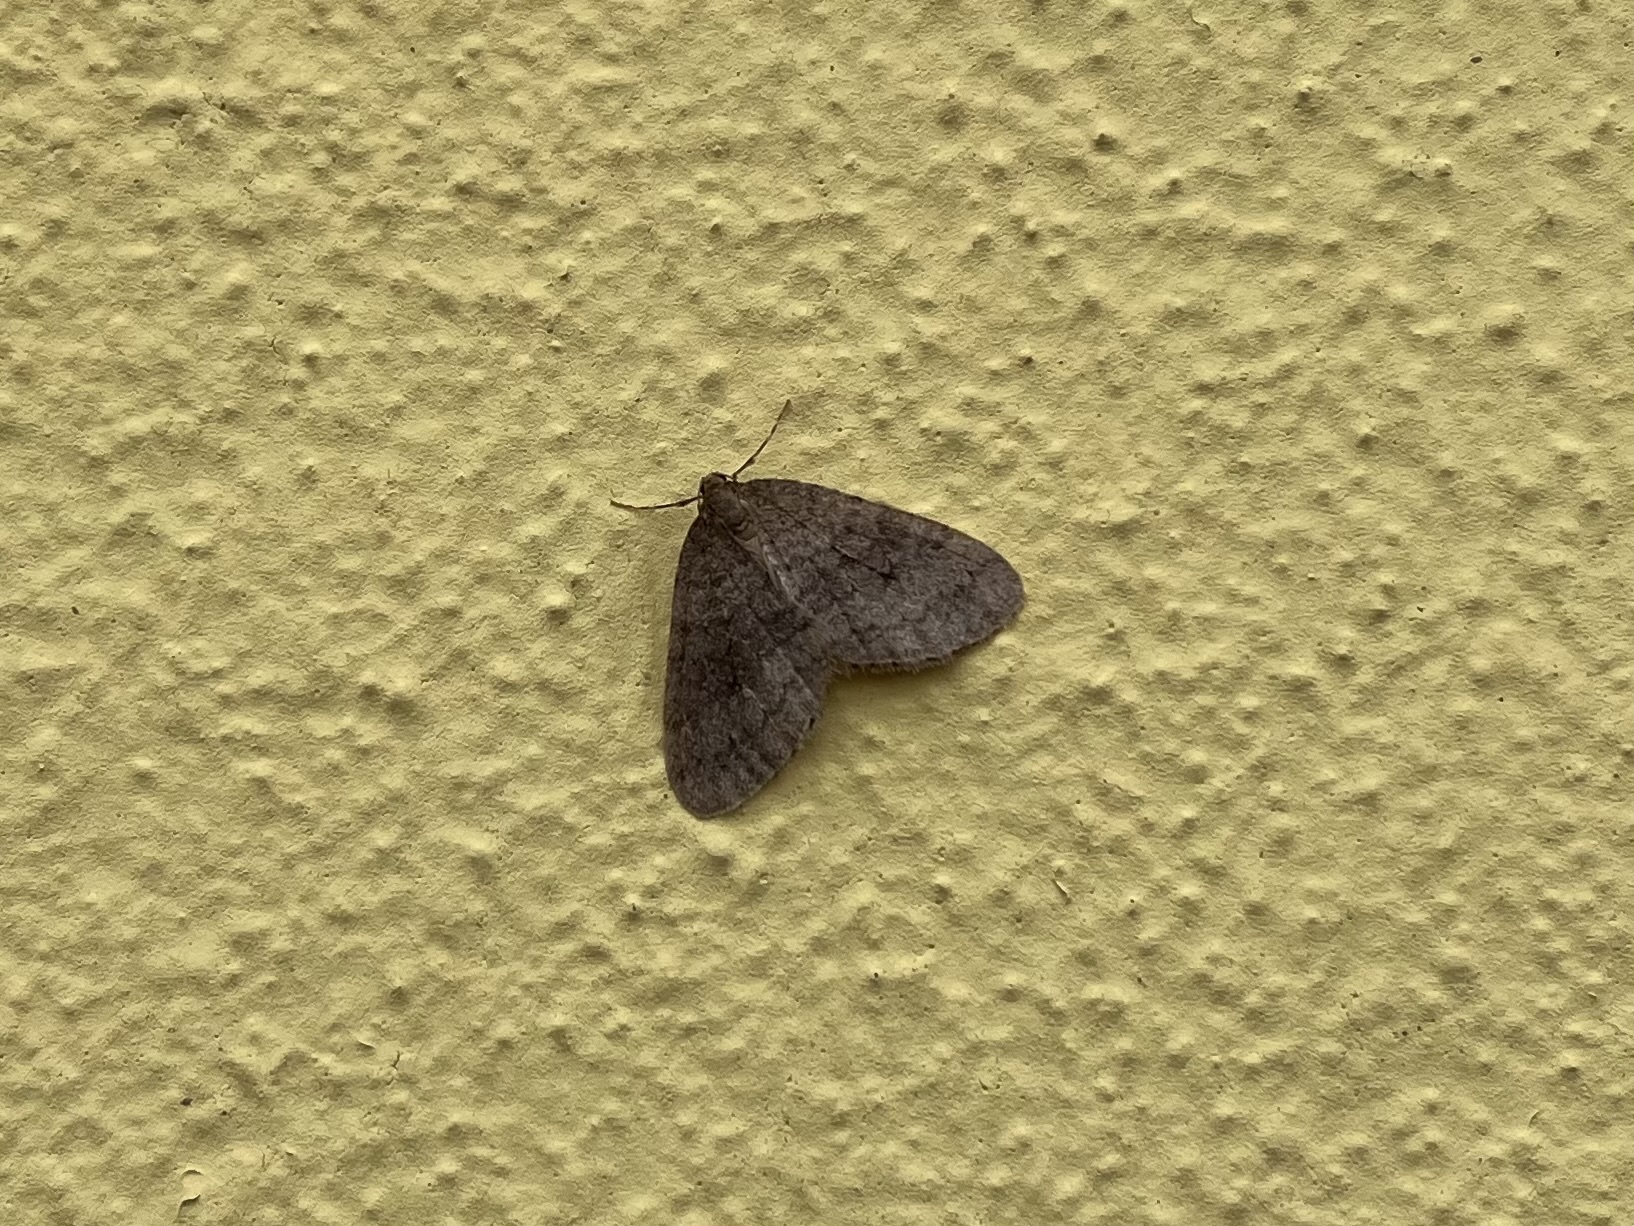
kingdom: Animalia
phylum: Arthropoda
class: Insecta
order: Lepidoptera
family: Geometridae
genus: Operophtera
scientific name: Operophtera brumata
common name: Winter moth
